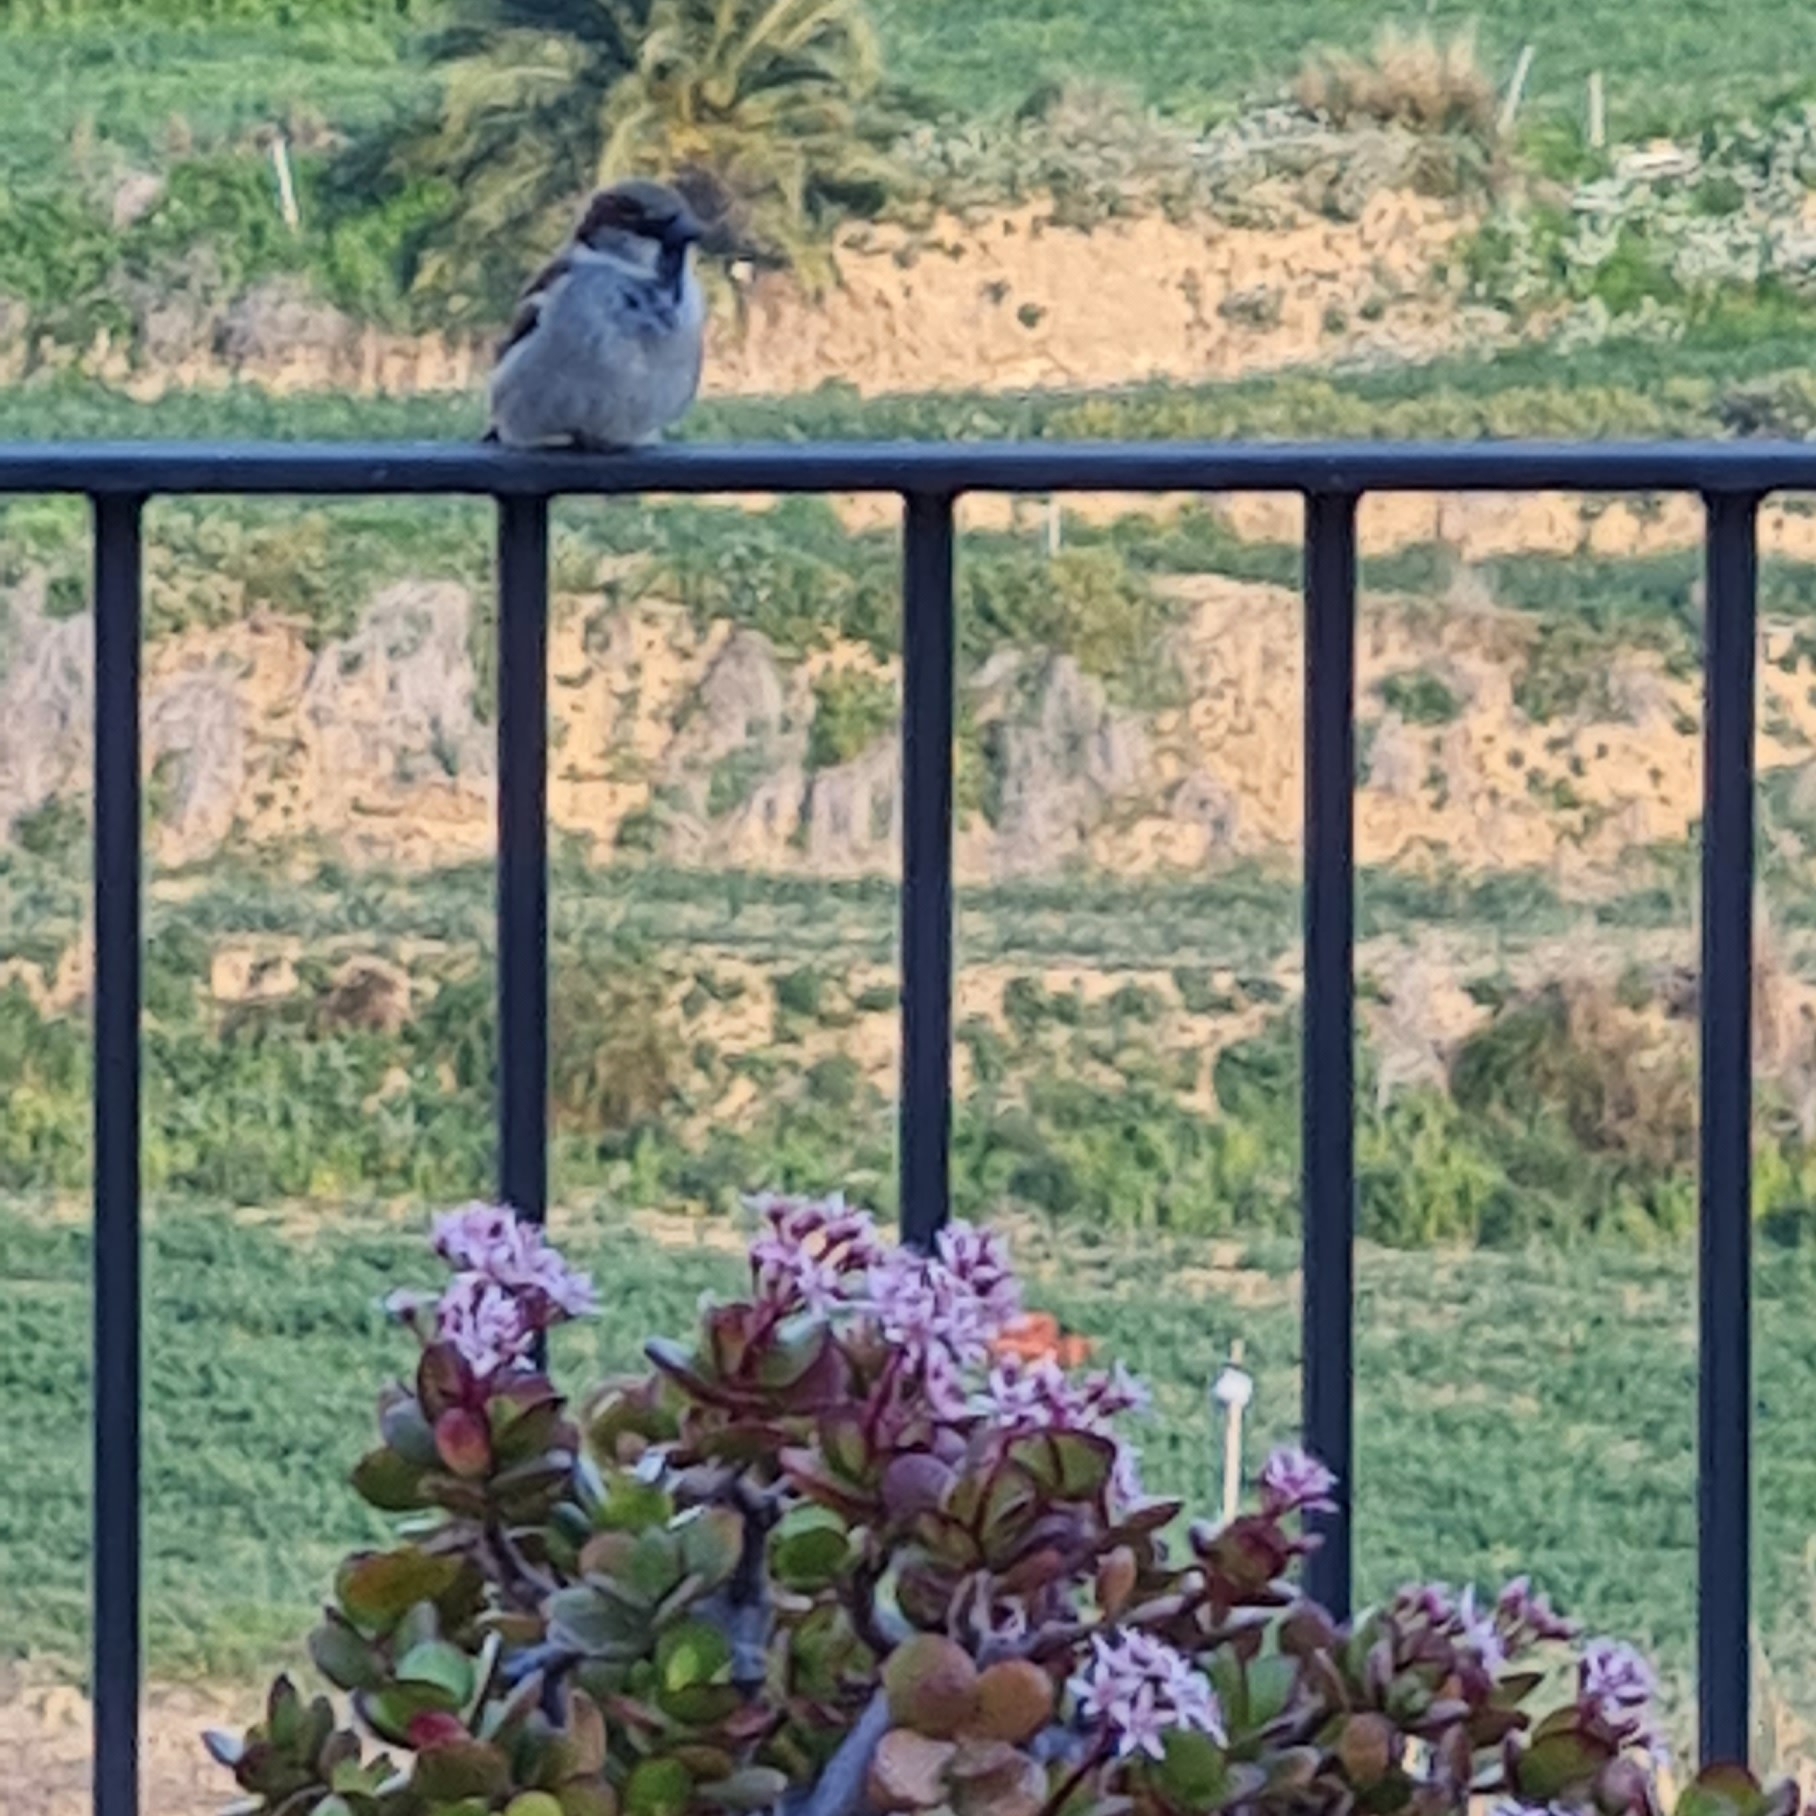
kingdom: Animalia
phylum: Chordata
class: Aves
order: Passeriformes
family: Passeridae
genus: Passer
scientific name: Passer domesticus
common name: House sparrow
